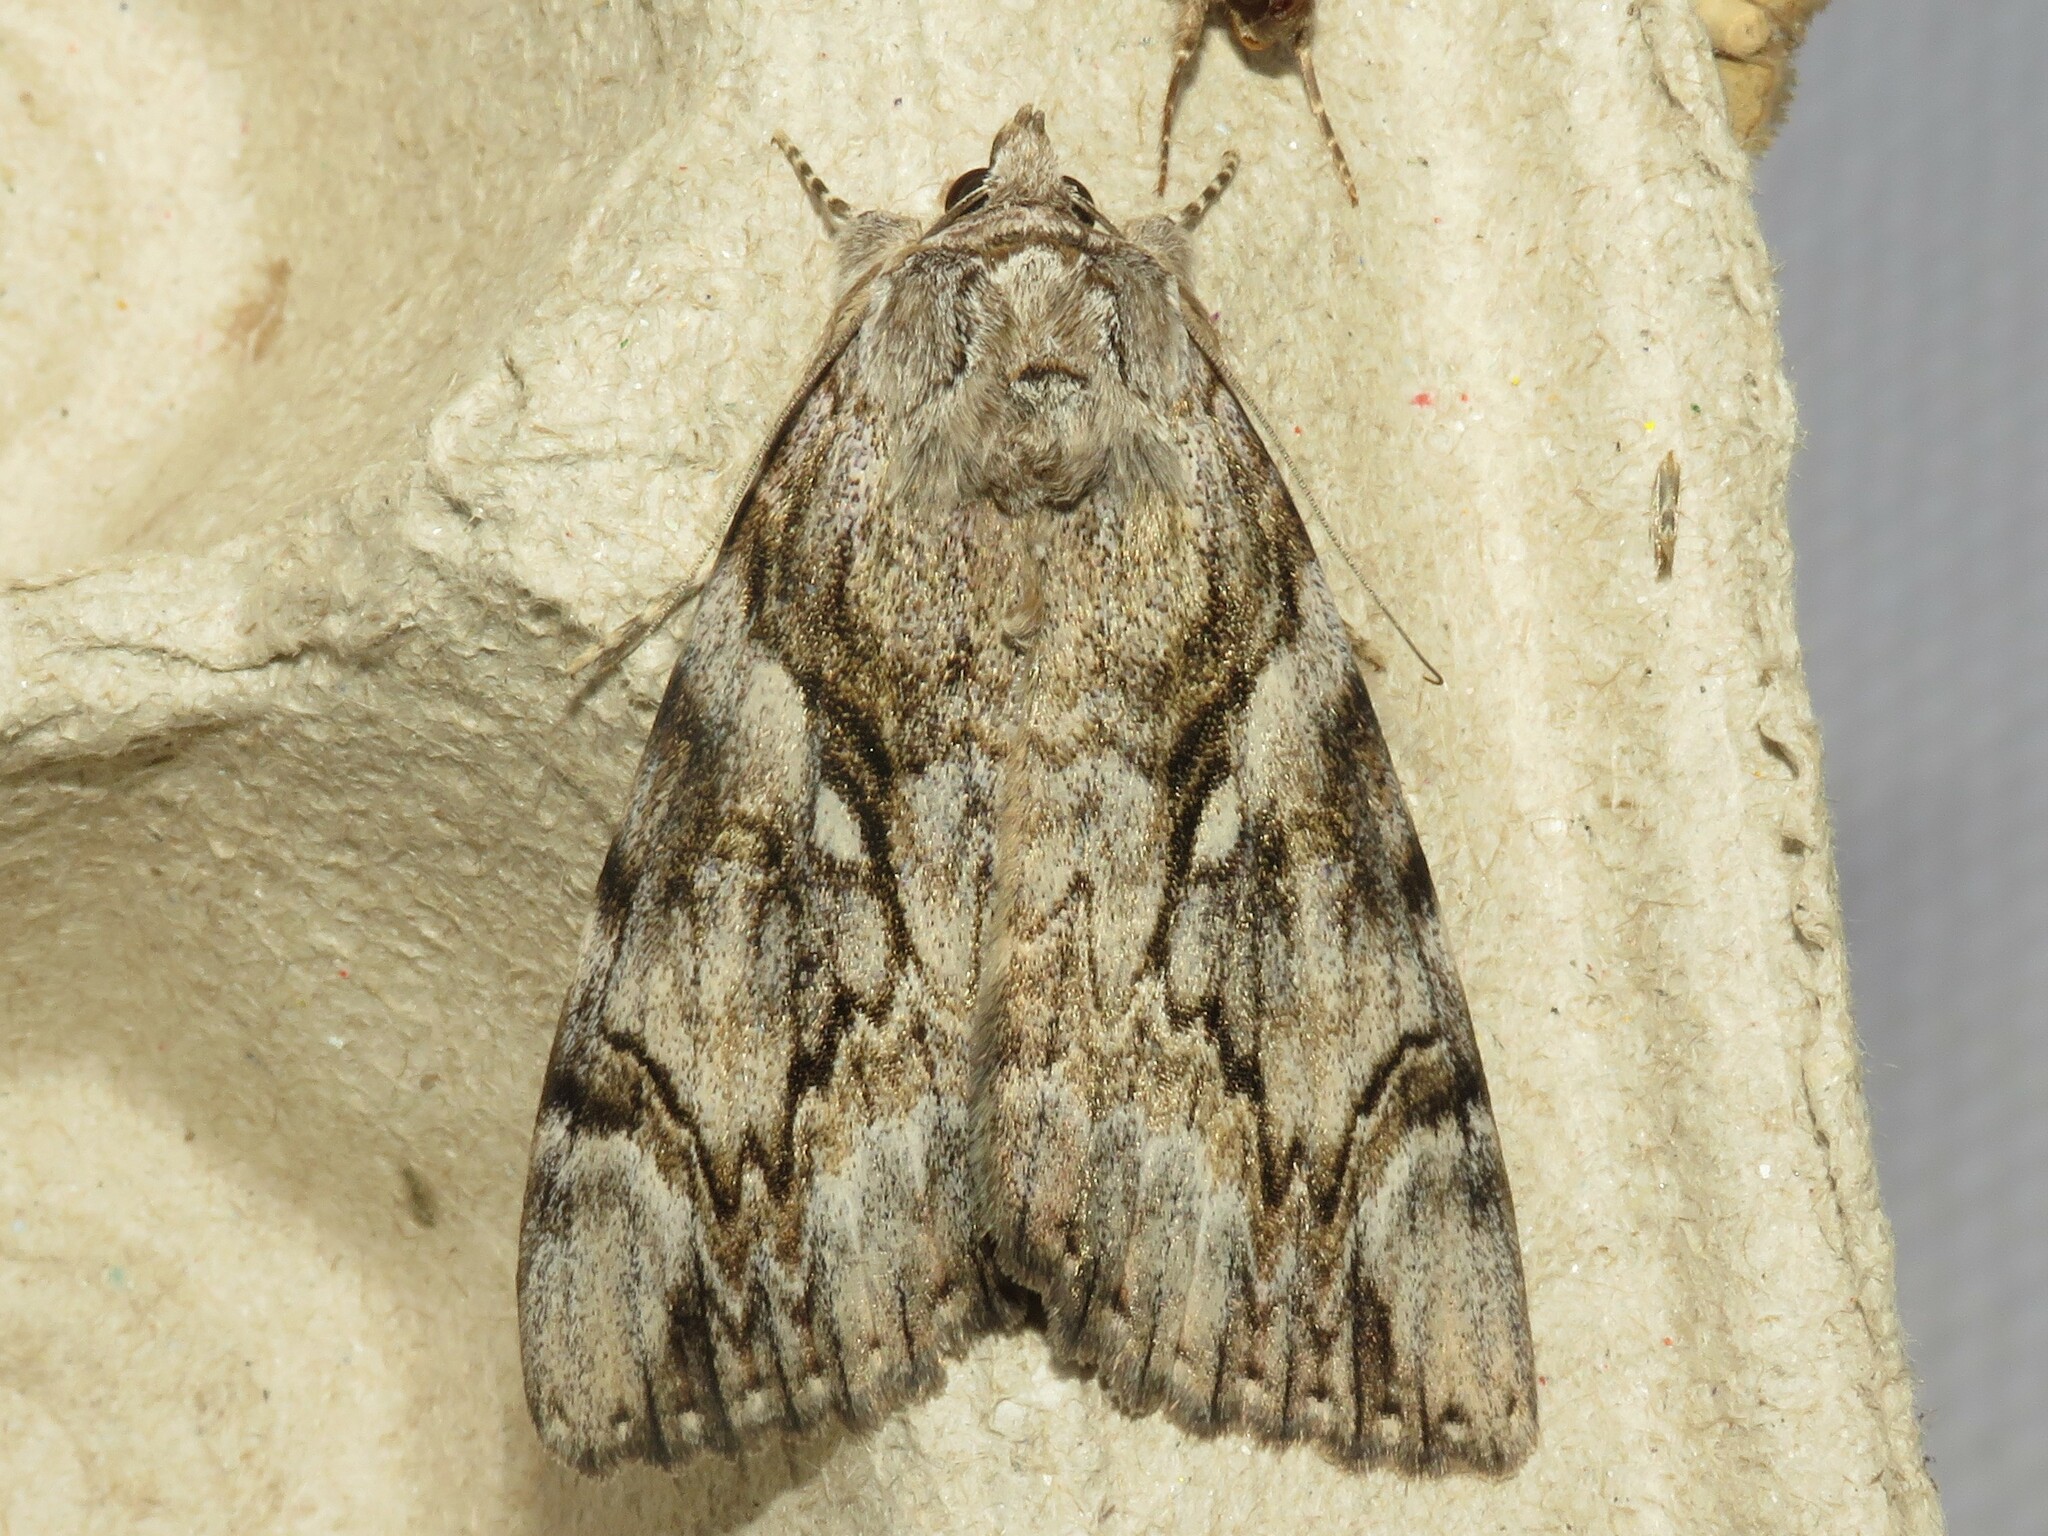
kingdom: Animalia
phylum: Arthropoda
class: Insecta
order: Lepidoptera
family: Erebidae
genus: Catocala
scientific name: Catocala cerogama
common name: Yellow banded underwing
